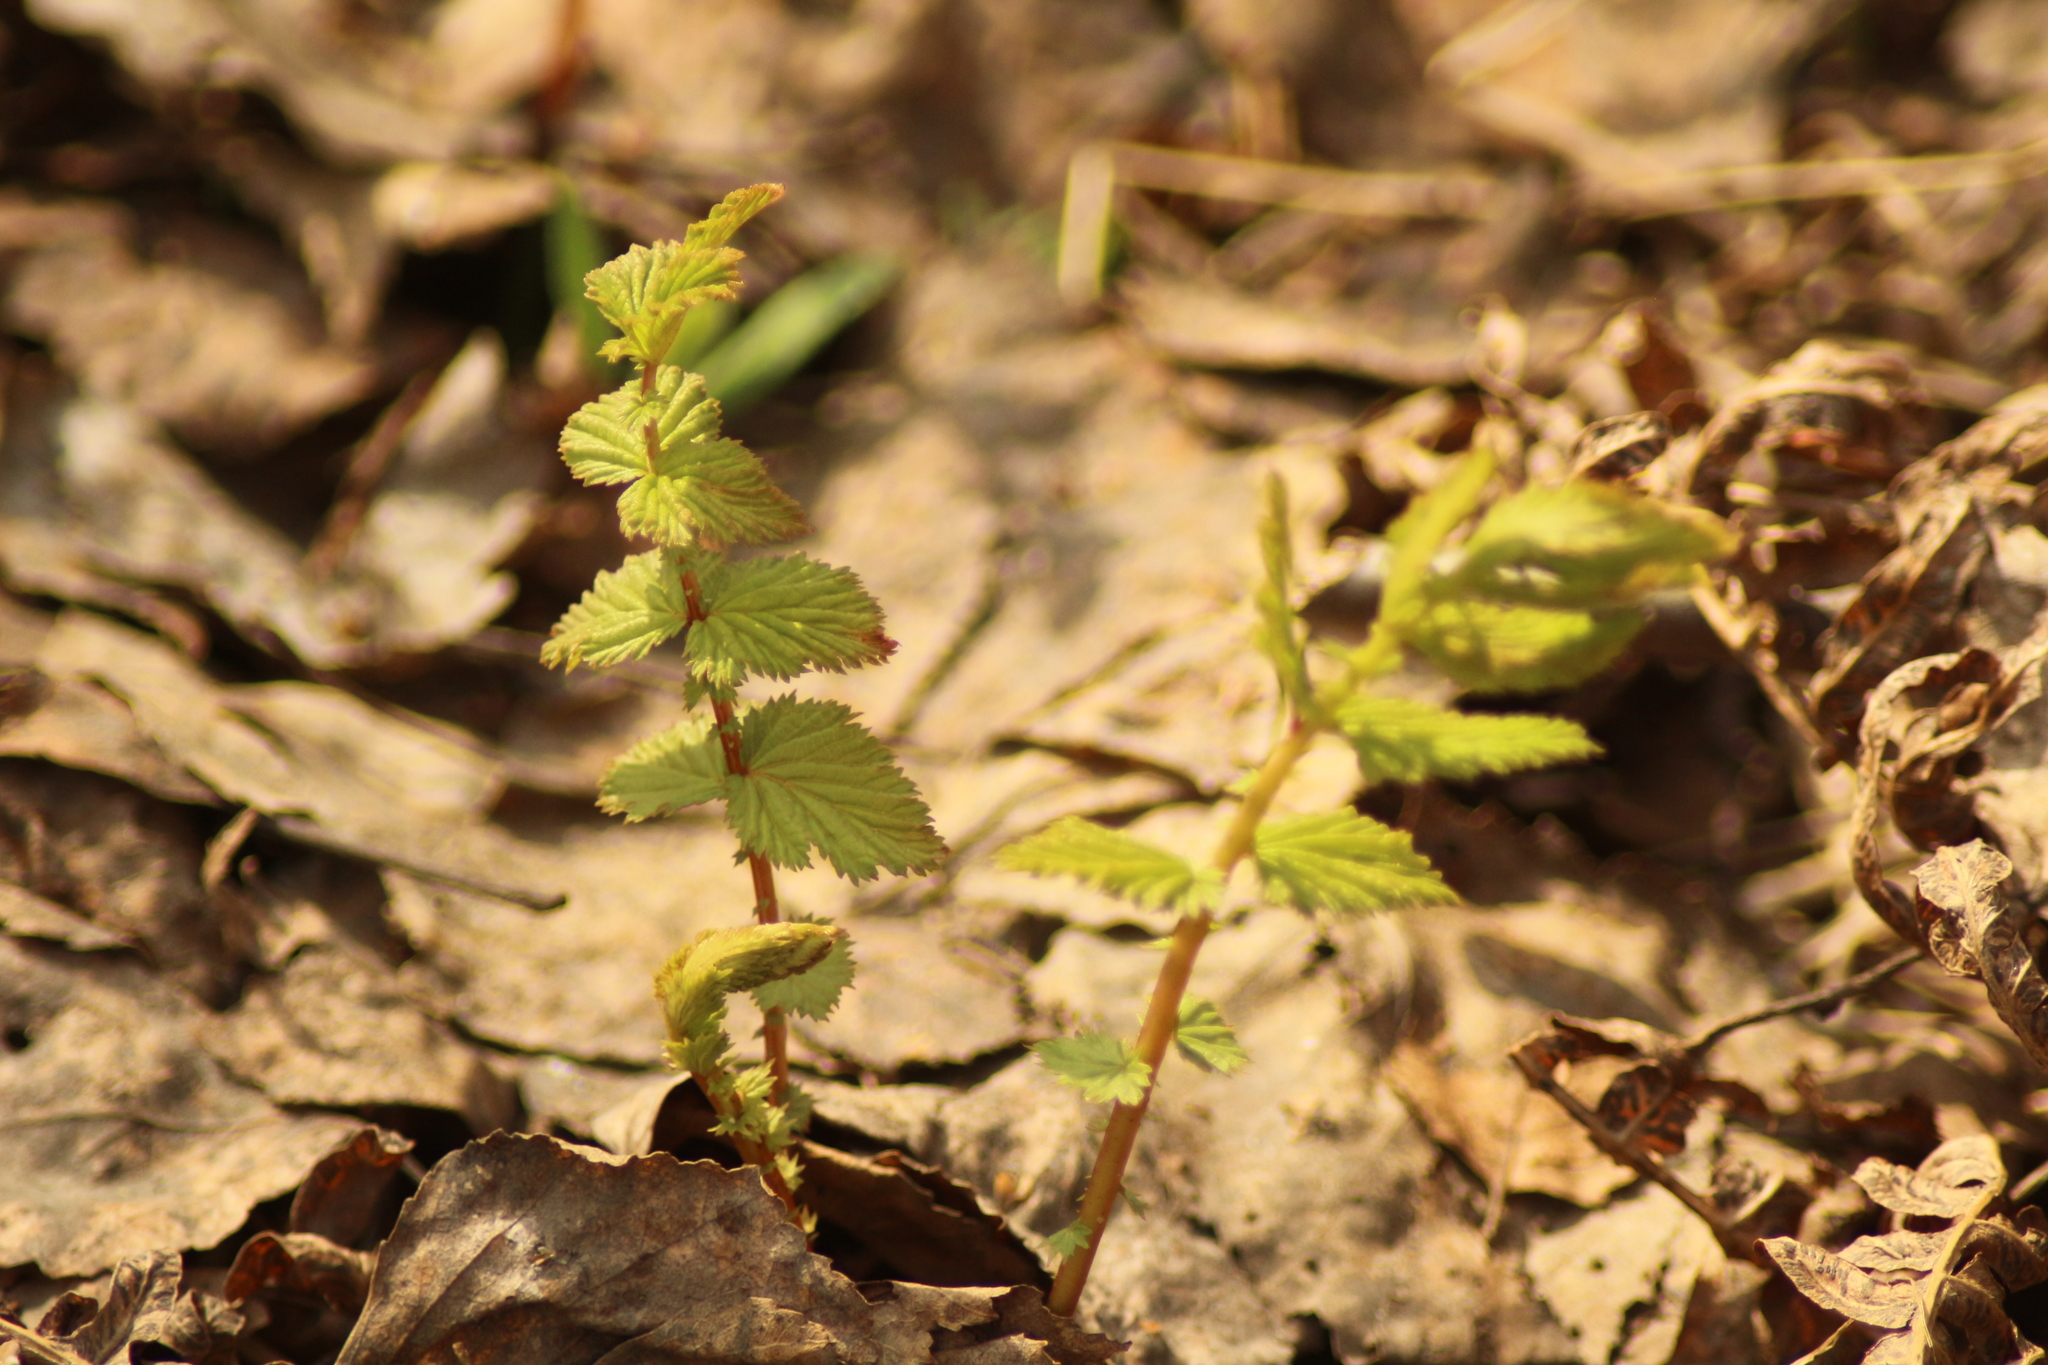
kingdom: Plantae
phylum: Tracheophyta
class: Magnoliopsida
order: Rosales
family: Rosaceae
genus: Filipendula
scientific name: Filipendula ulmaria
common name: Meadowsweet
